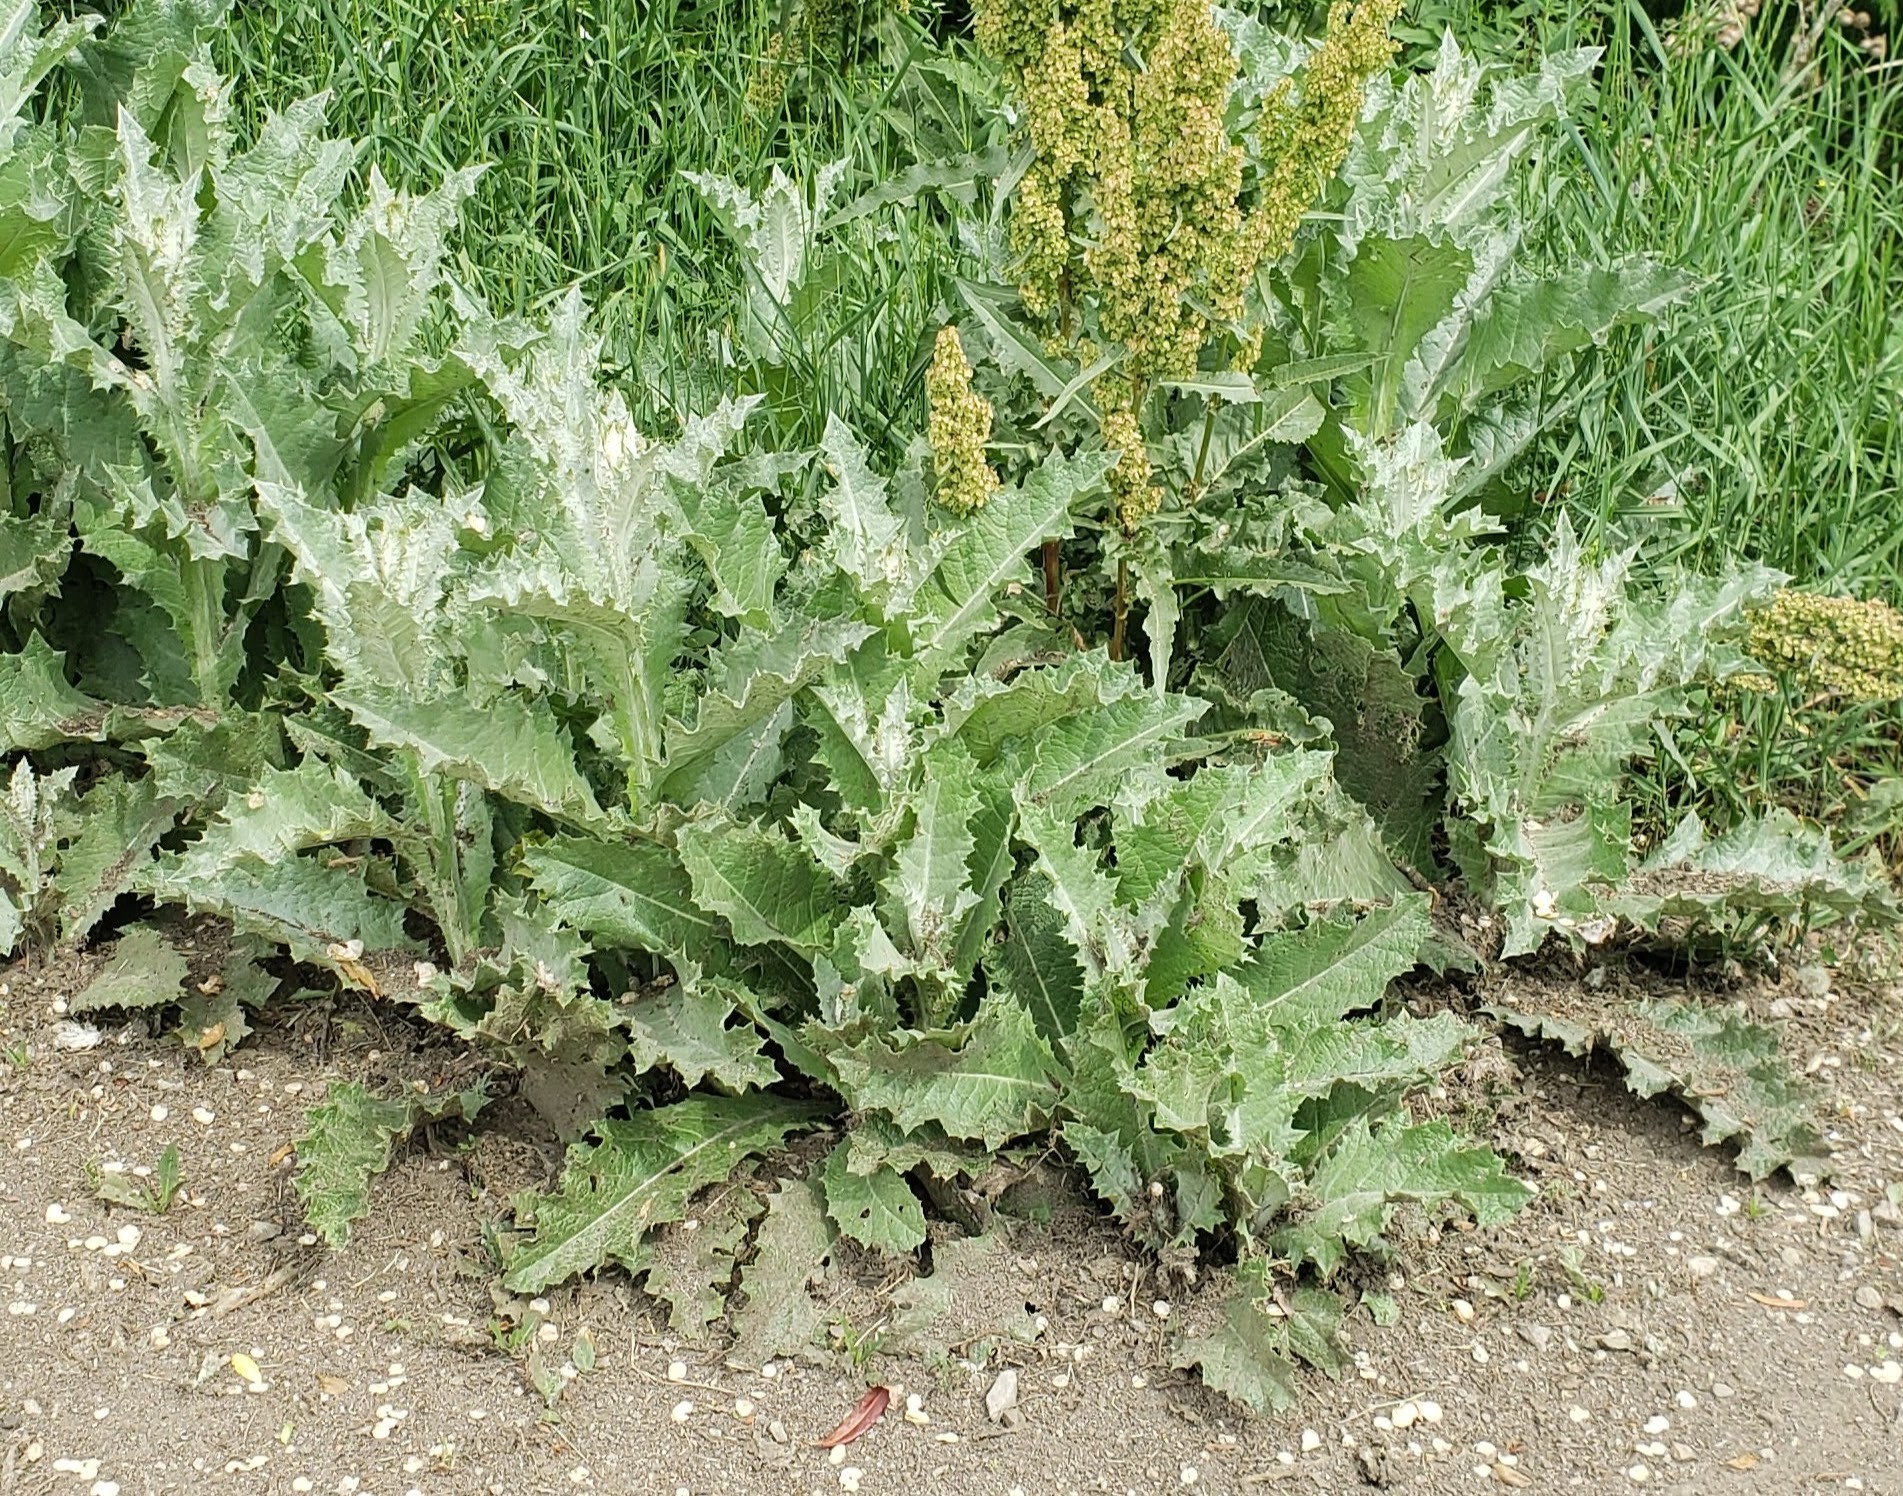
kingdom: Plantae
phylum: Tracheophyta
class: Magnoliopsida
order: Asterales
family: Asteraceae
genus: Onopordum
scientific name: Onopordum acanthium
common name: Scotch thistle
